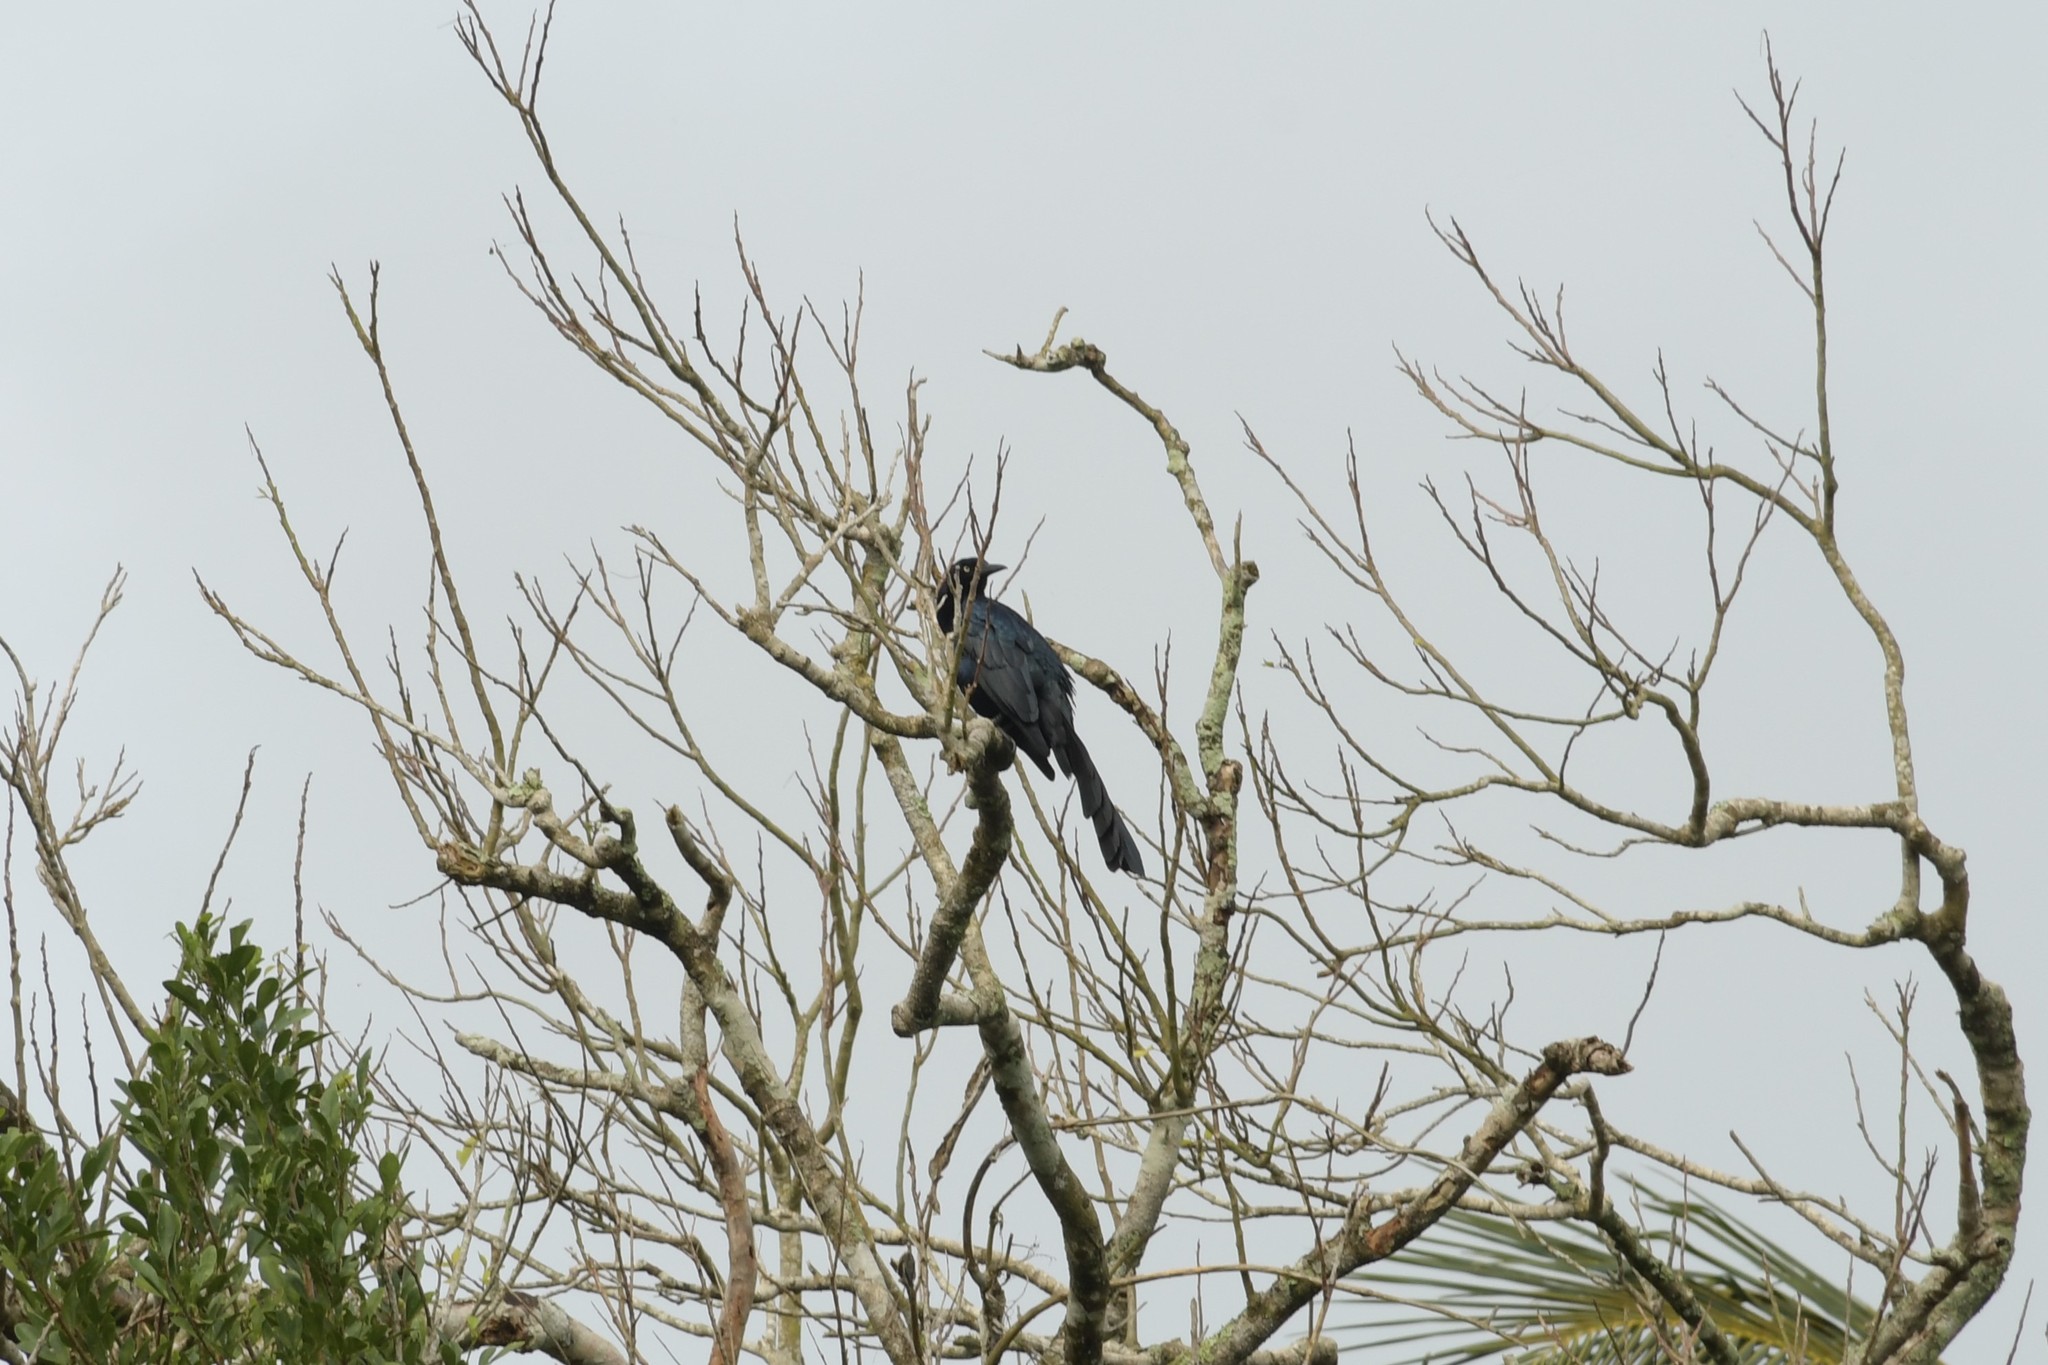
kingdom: Animalia
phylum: Chordata
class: Aves
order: Passeriformes
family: Icteridae
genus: Quiscalus
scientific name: Quiscalus mexicanus
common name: Great-tailed grackle
